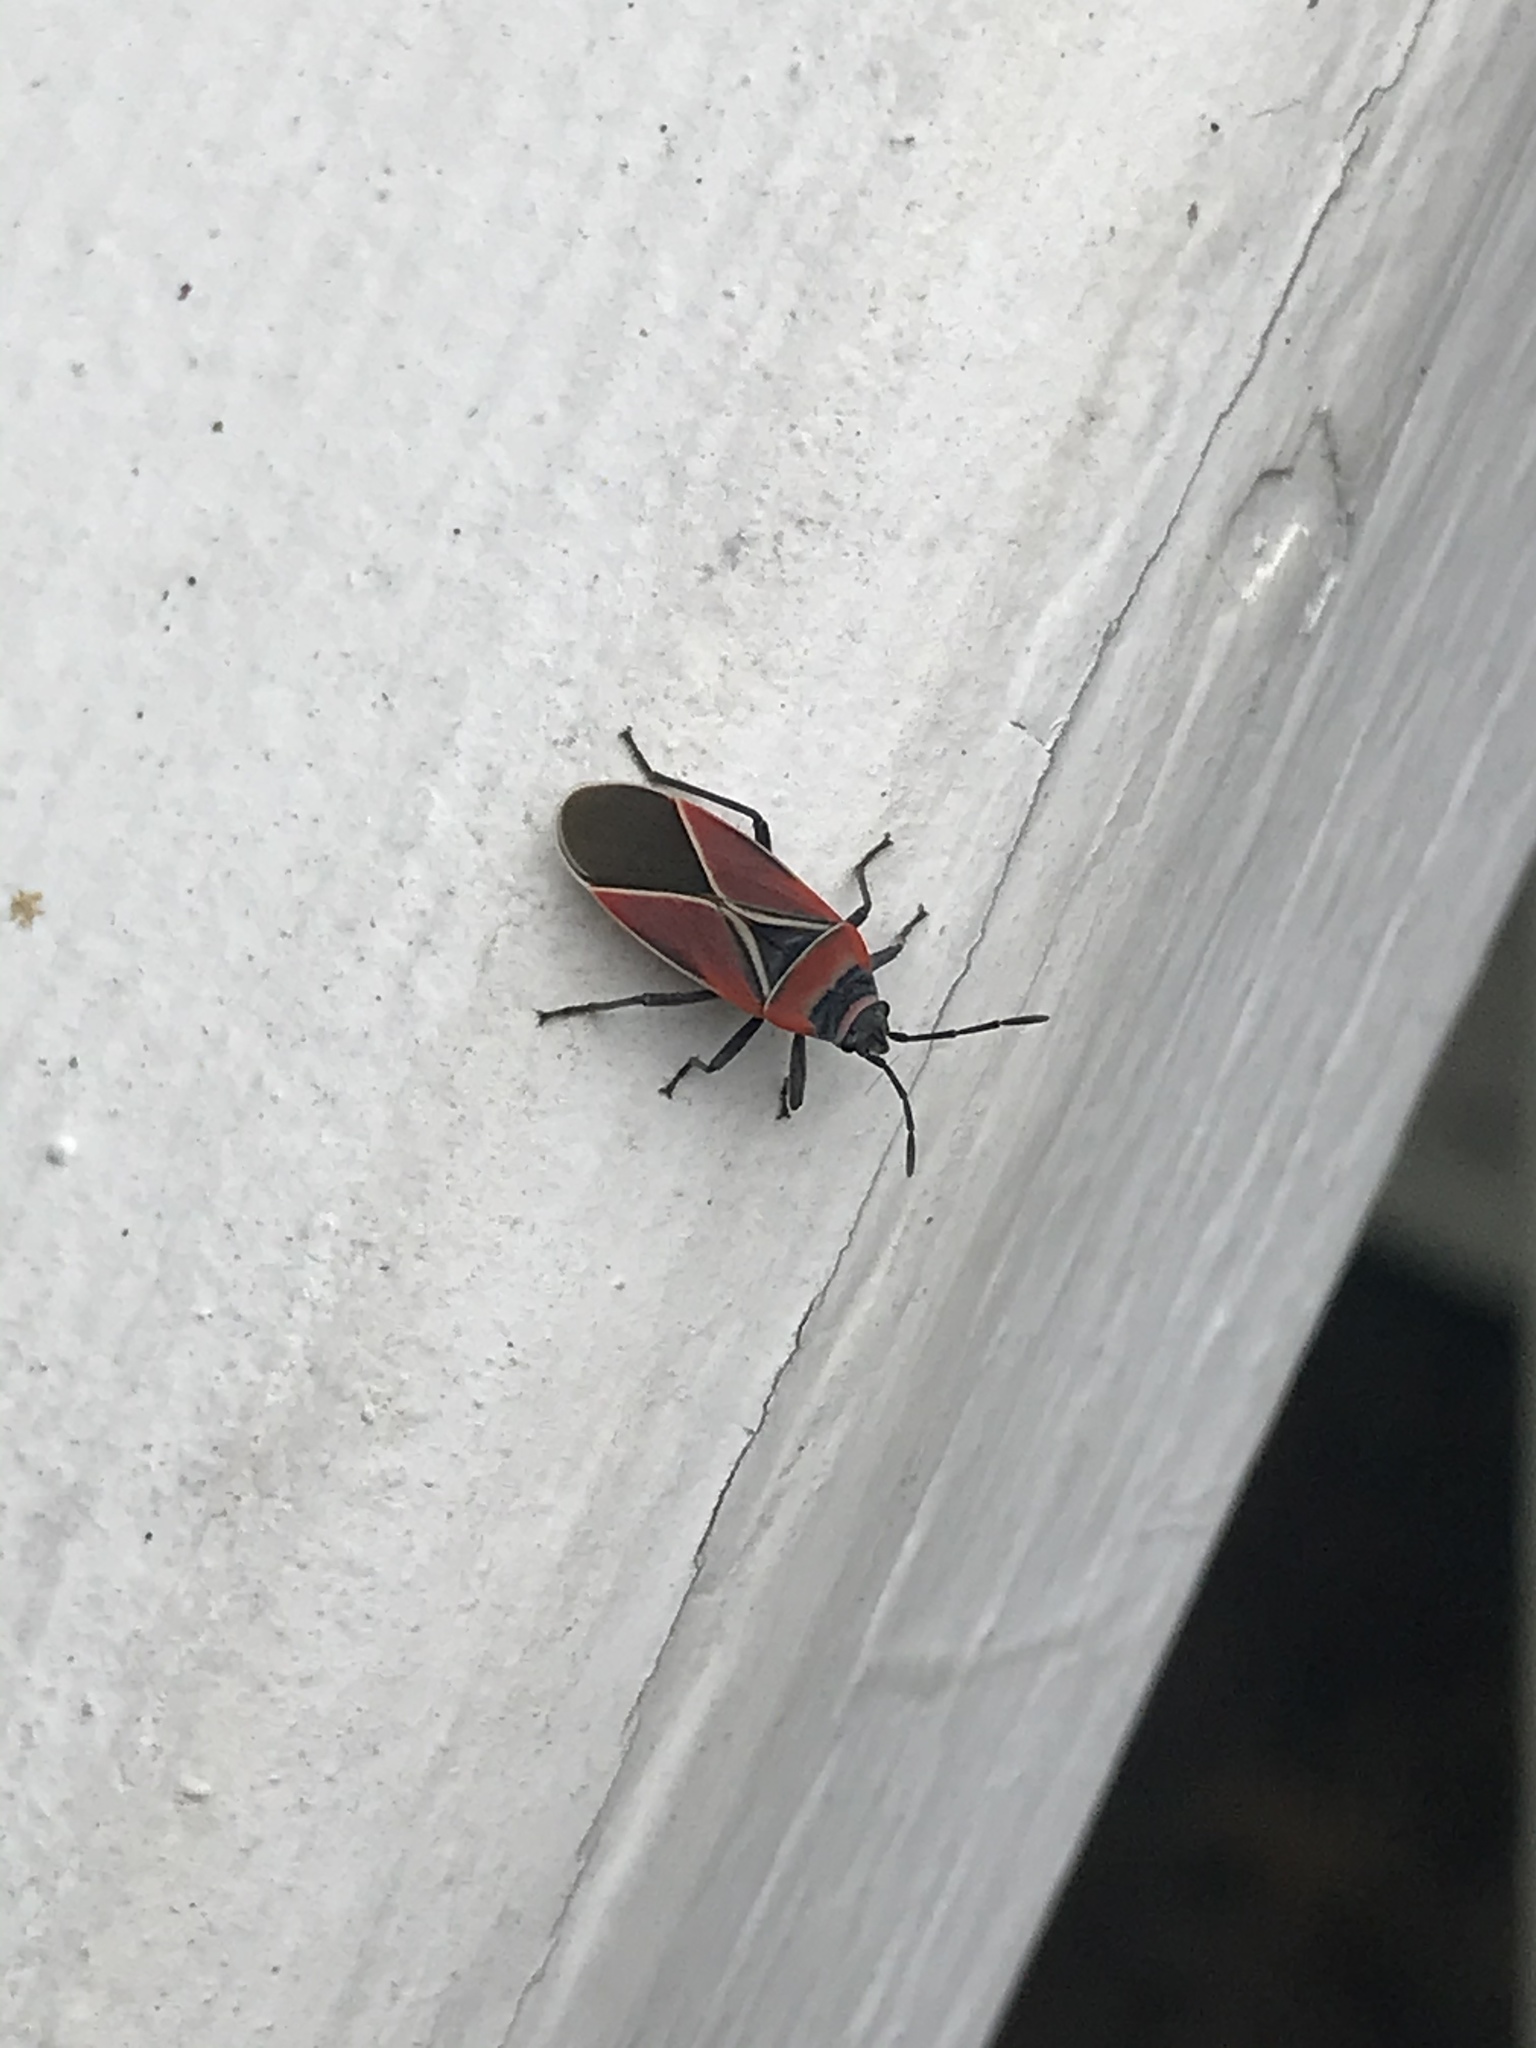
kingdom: Animalia
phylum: Arthropoda
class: Insecta
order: Hemiptera
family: Lygaeidae
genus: Neacoryphus
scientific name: Neacoryphus bicrucis
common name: Lygaeid bug
